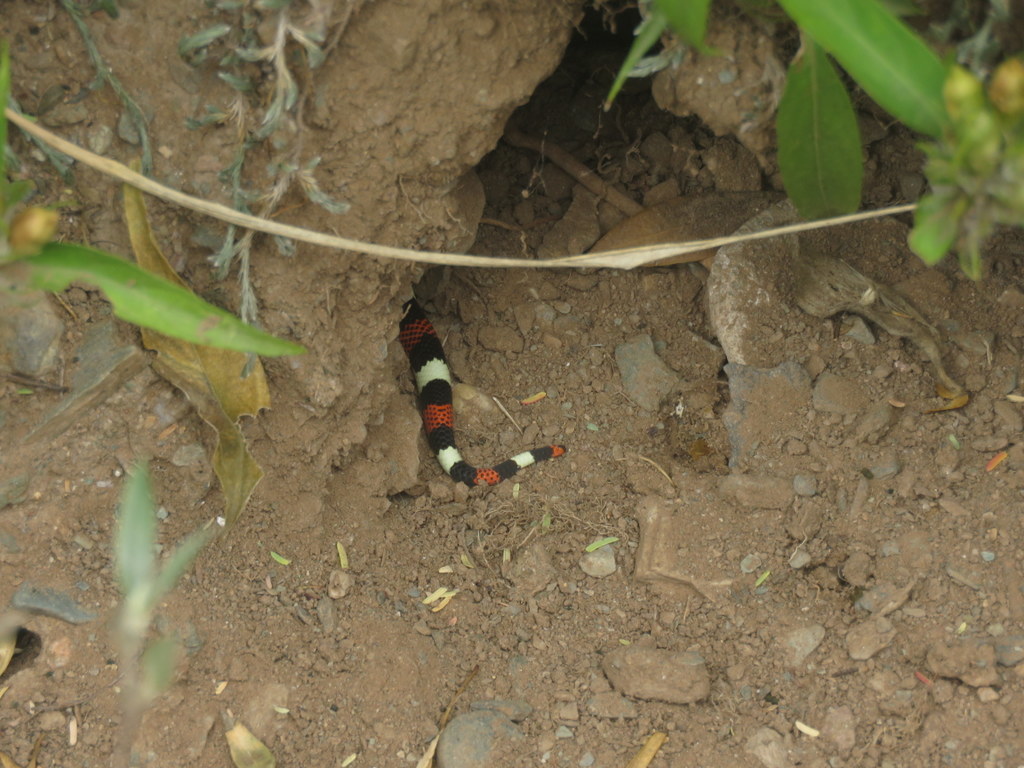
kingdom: Animalia
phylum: Chordata
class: Squamata
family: Colubridae
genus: Xenodon
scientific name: Xenodon pulcher
